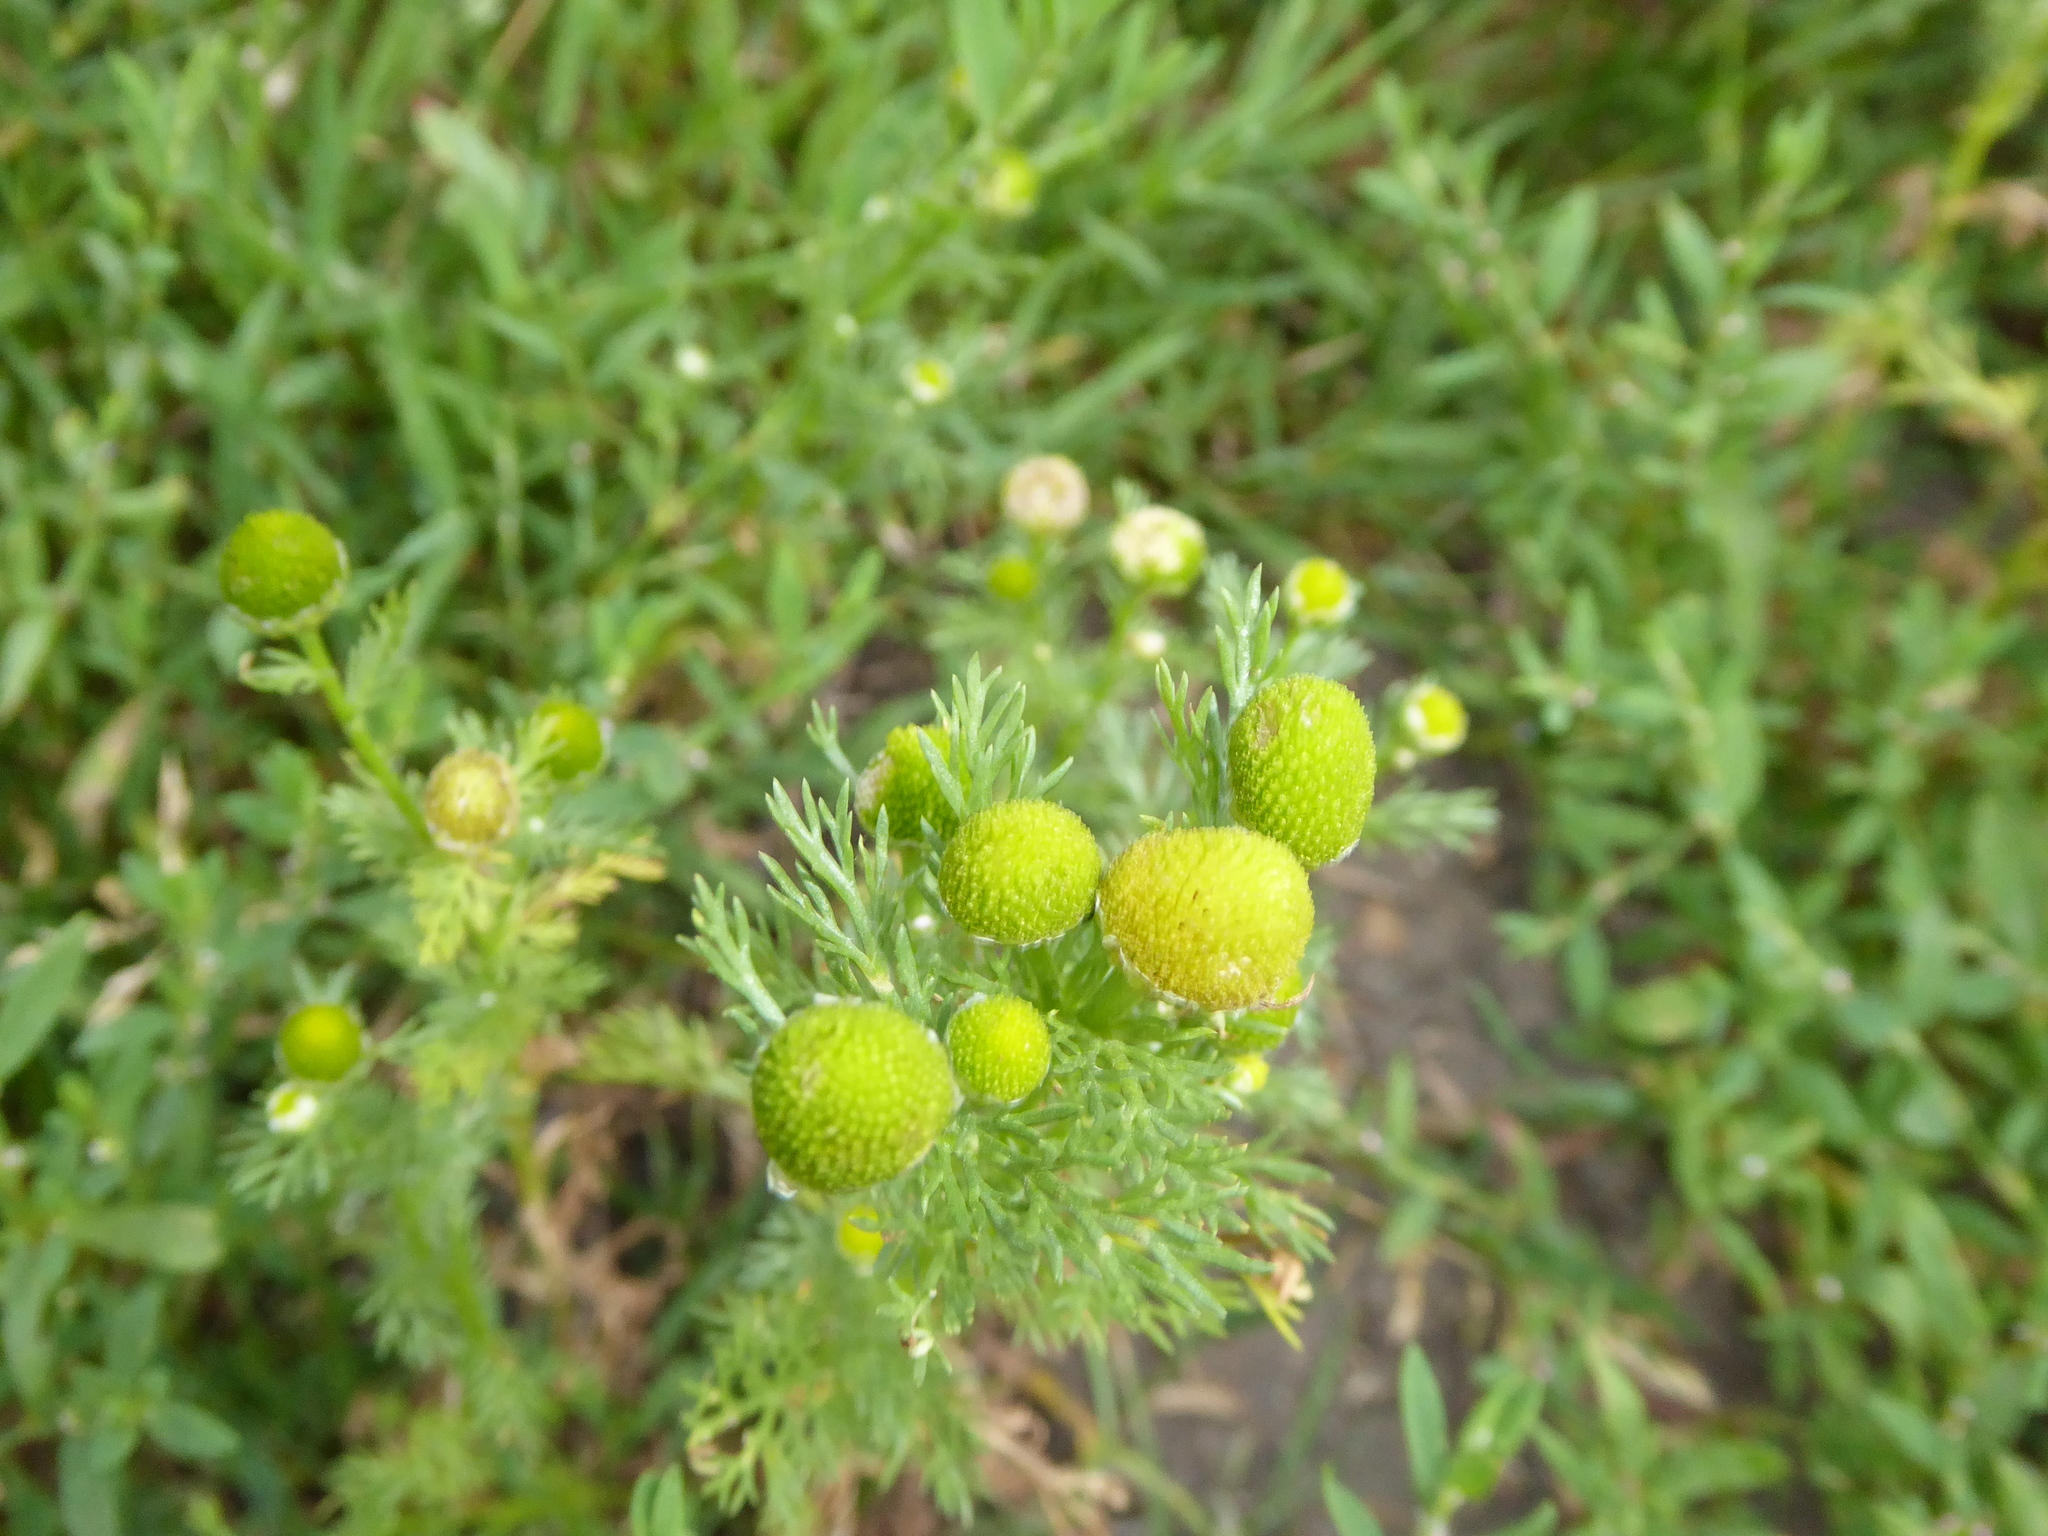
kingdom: Plantae
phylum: Tracheophyta
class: Magnoliopsida
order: Asterales
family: Asteraceae
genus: Matricaria
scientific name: Matricaria discoidea
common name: Disc mayweed
